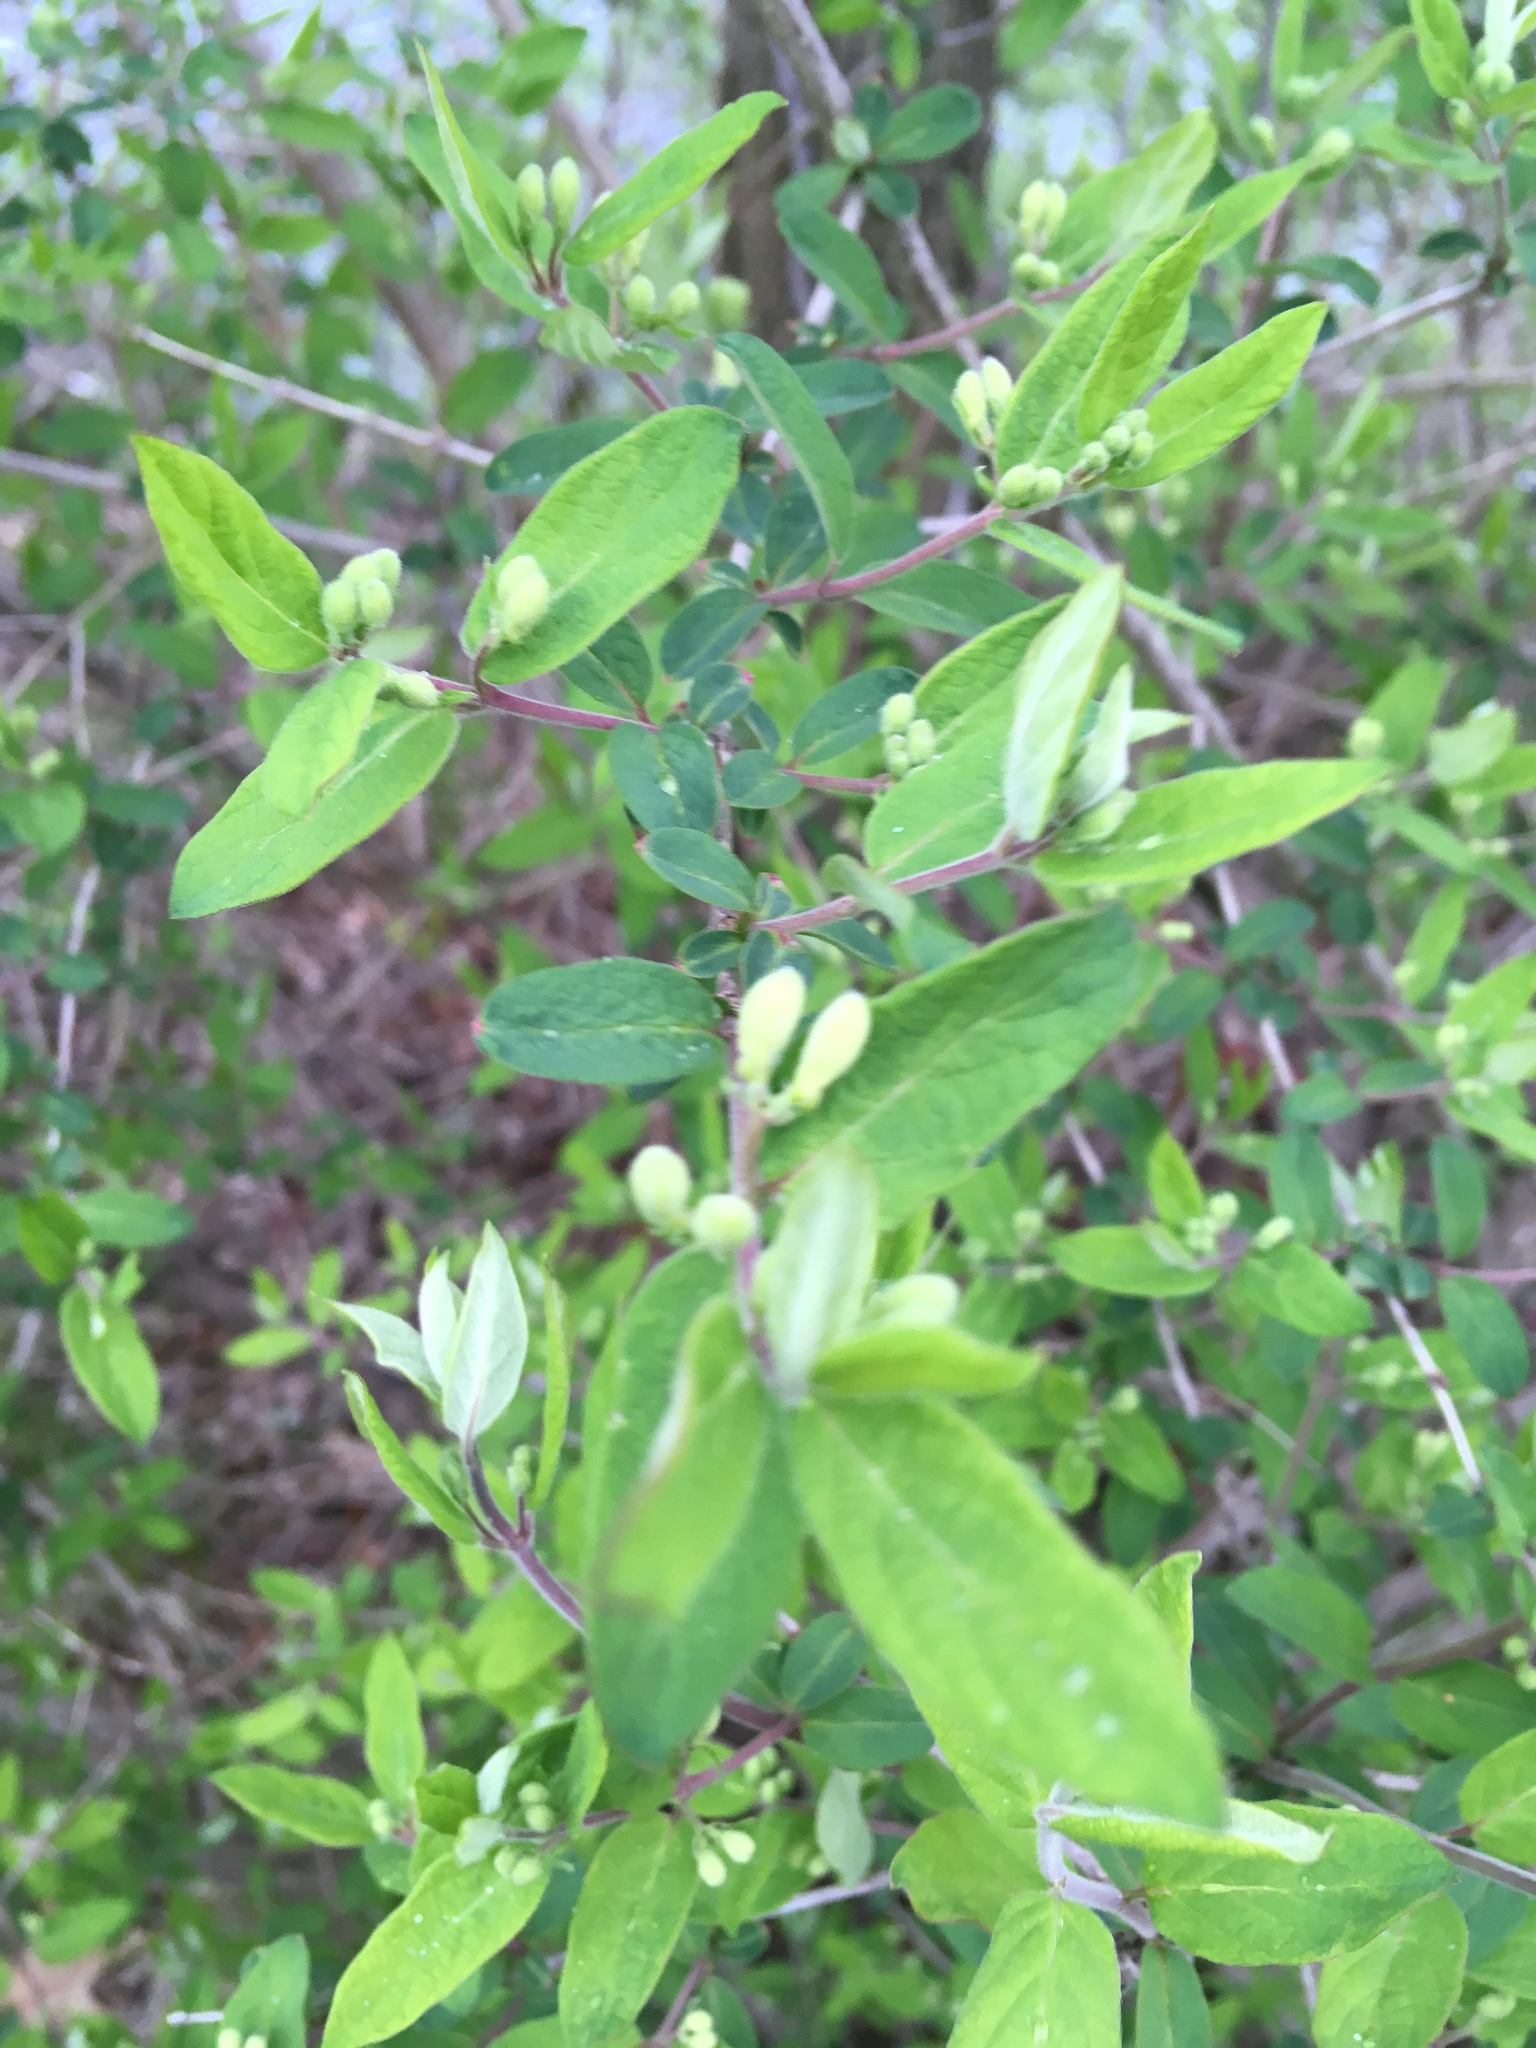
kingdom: Plantae
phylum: Tracheophyta
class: Magnoliopsida
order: Dipsacales
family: Caprifoliaceae
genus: Lonicera
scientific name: Lonicera
